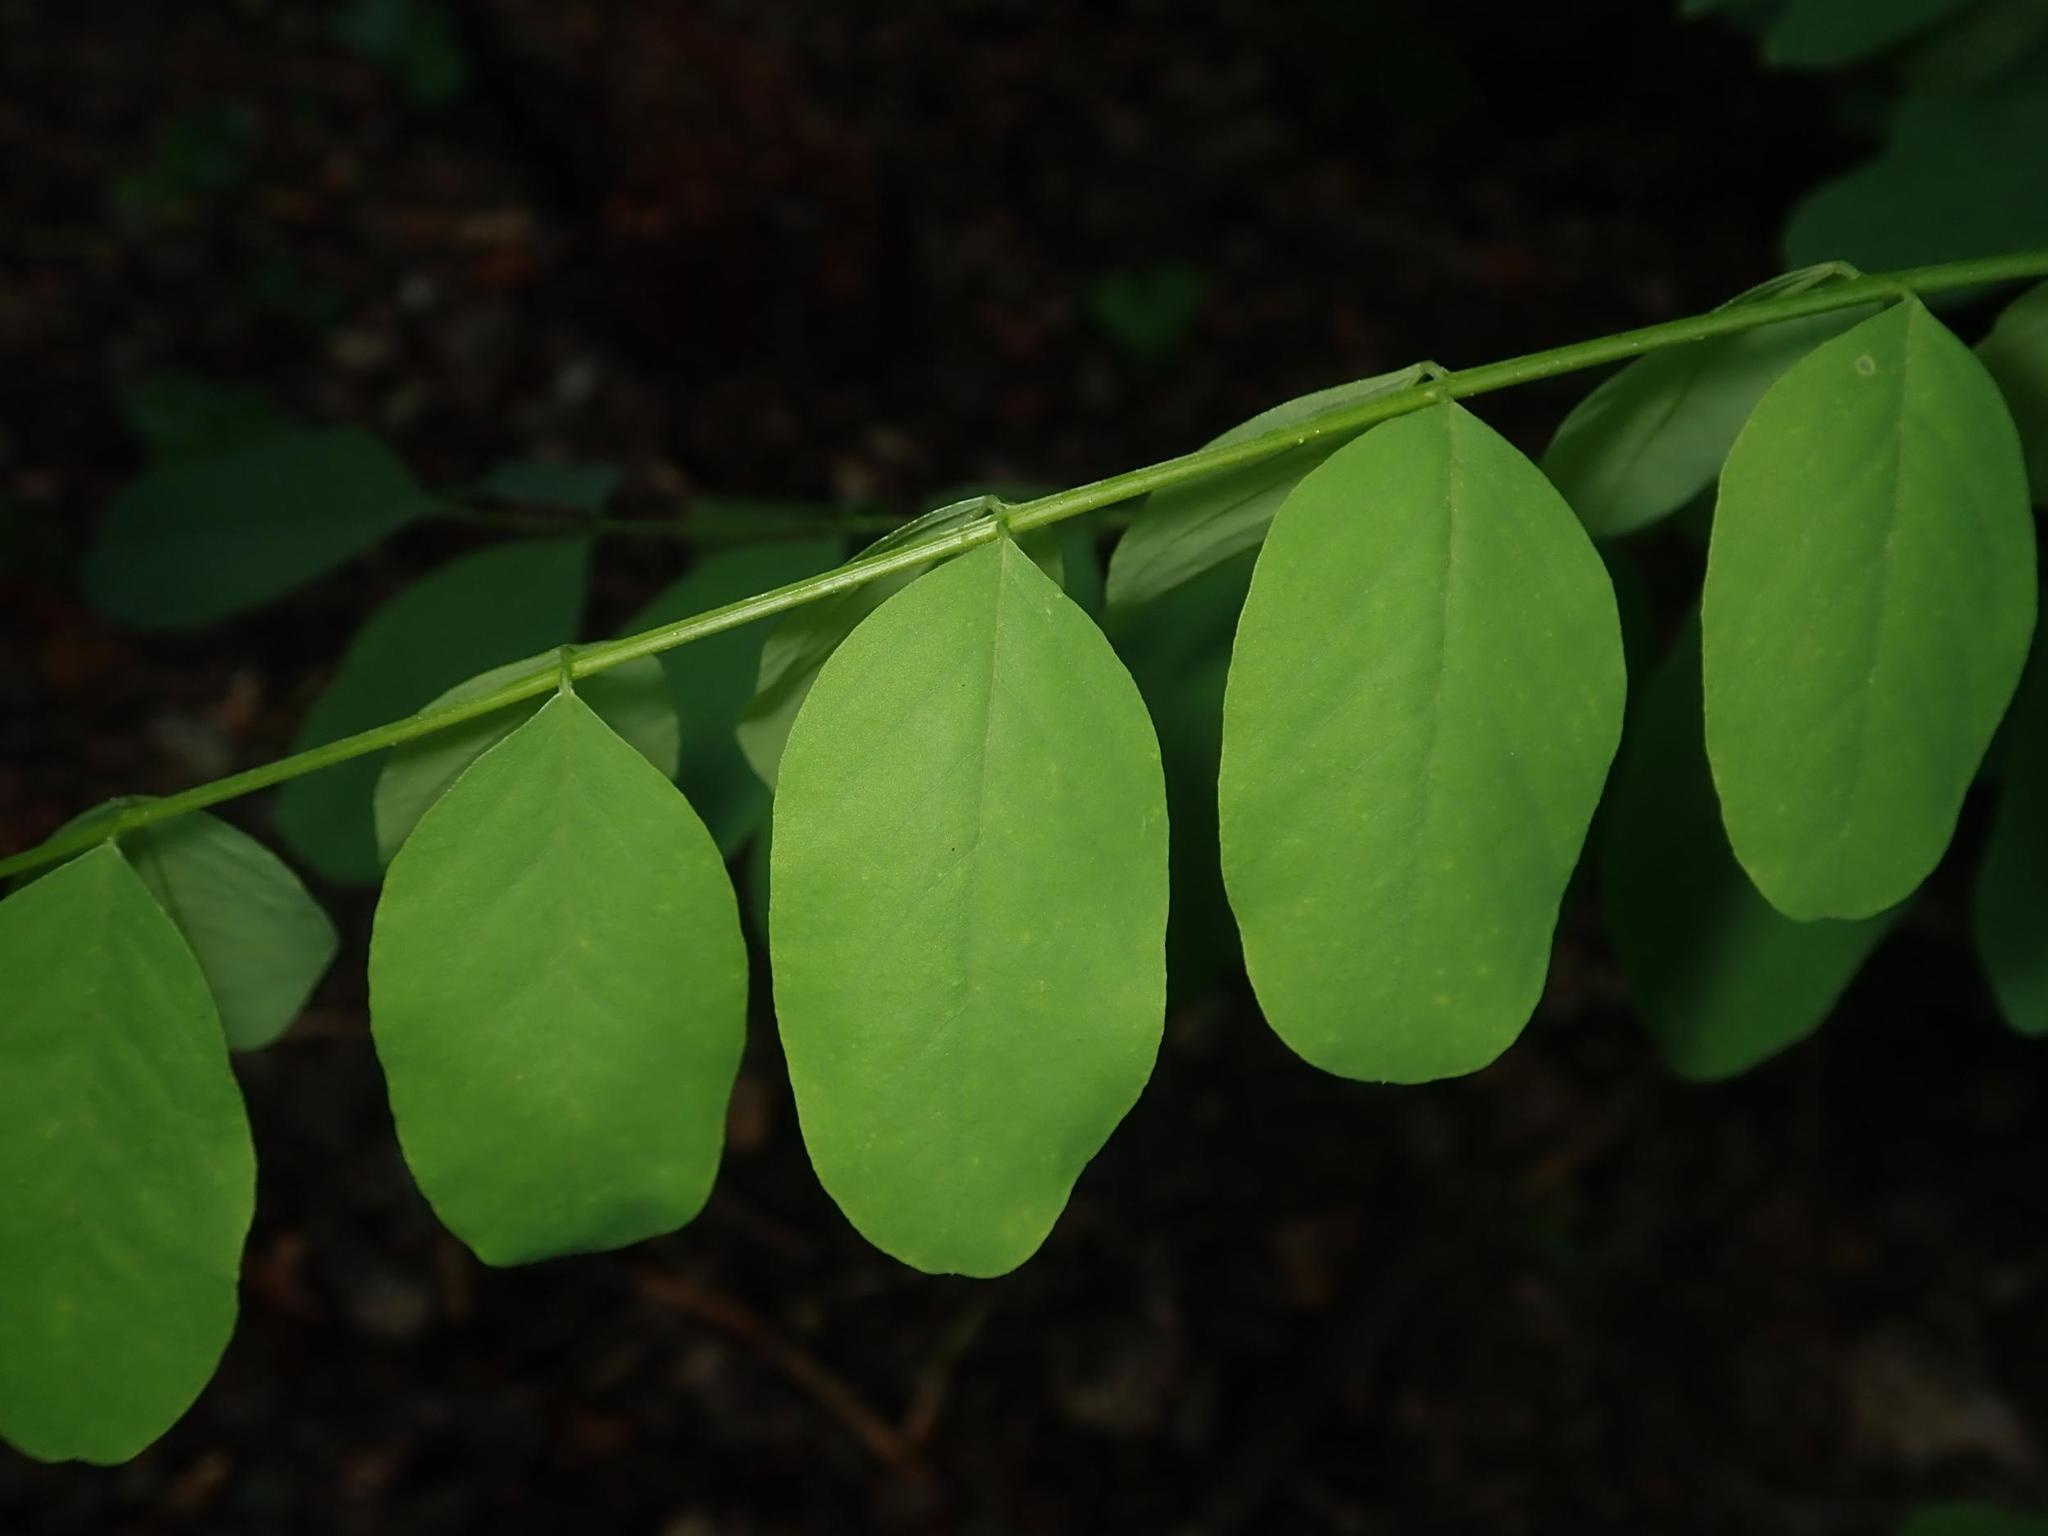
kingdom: Plantae
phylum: Tracheophyta
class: Magnoliopsida
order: Fabales
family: Fabaceae
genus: Robinia
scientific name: Robinia pseudoacacia
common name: Black locust
